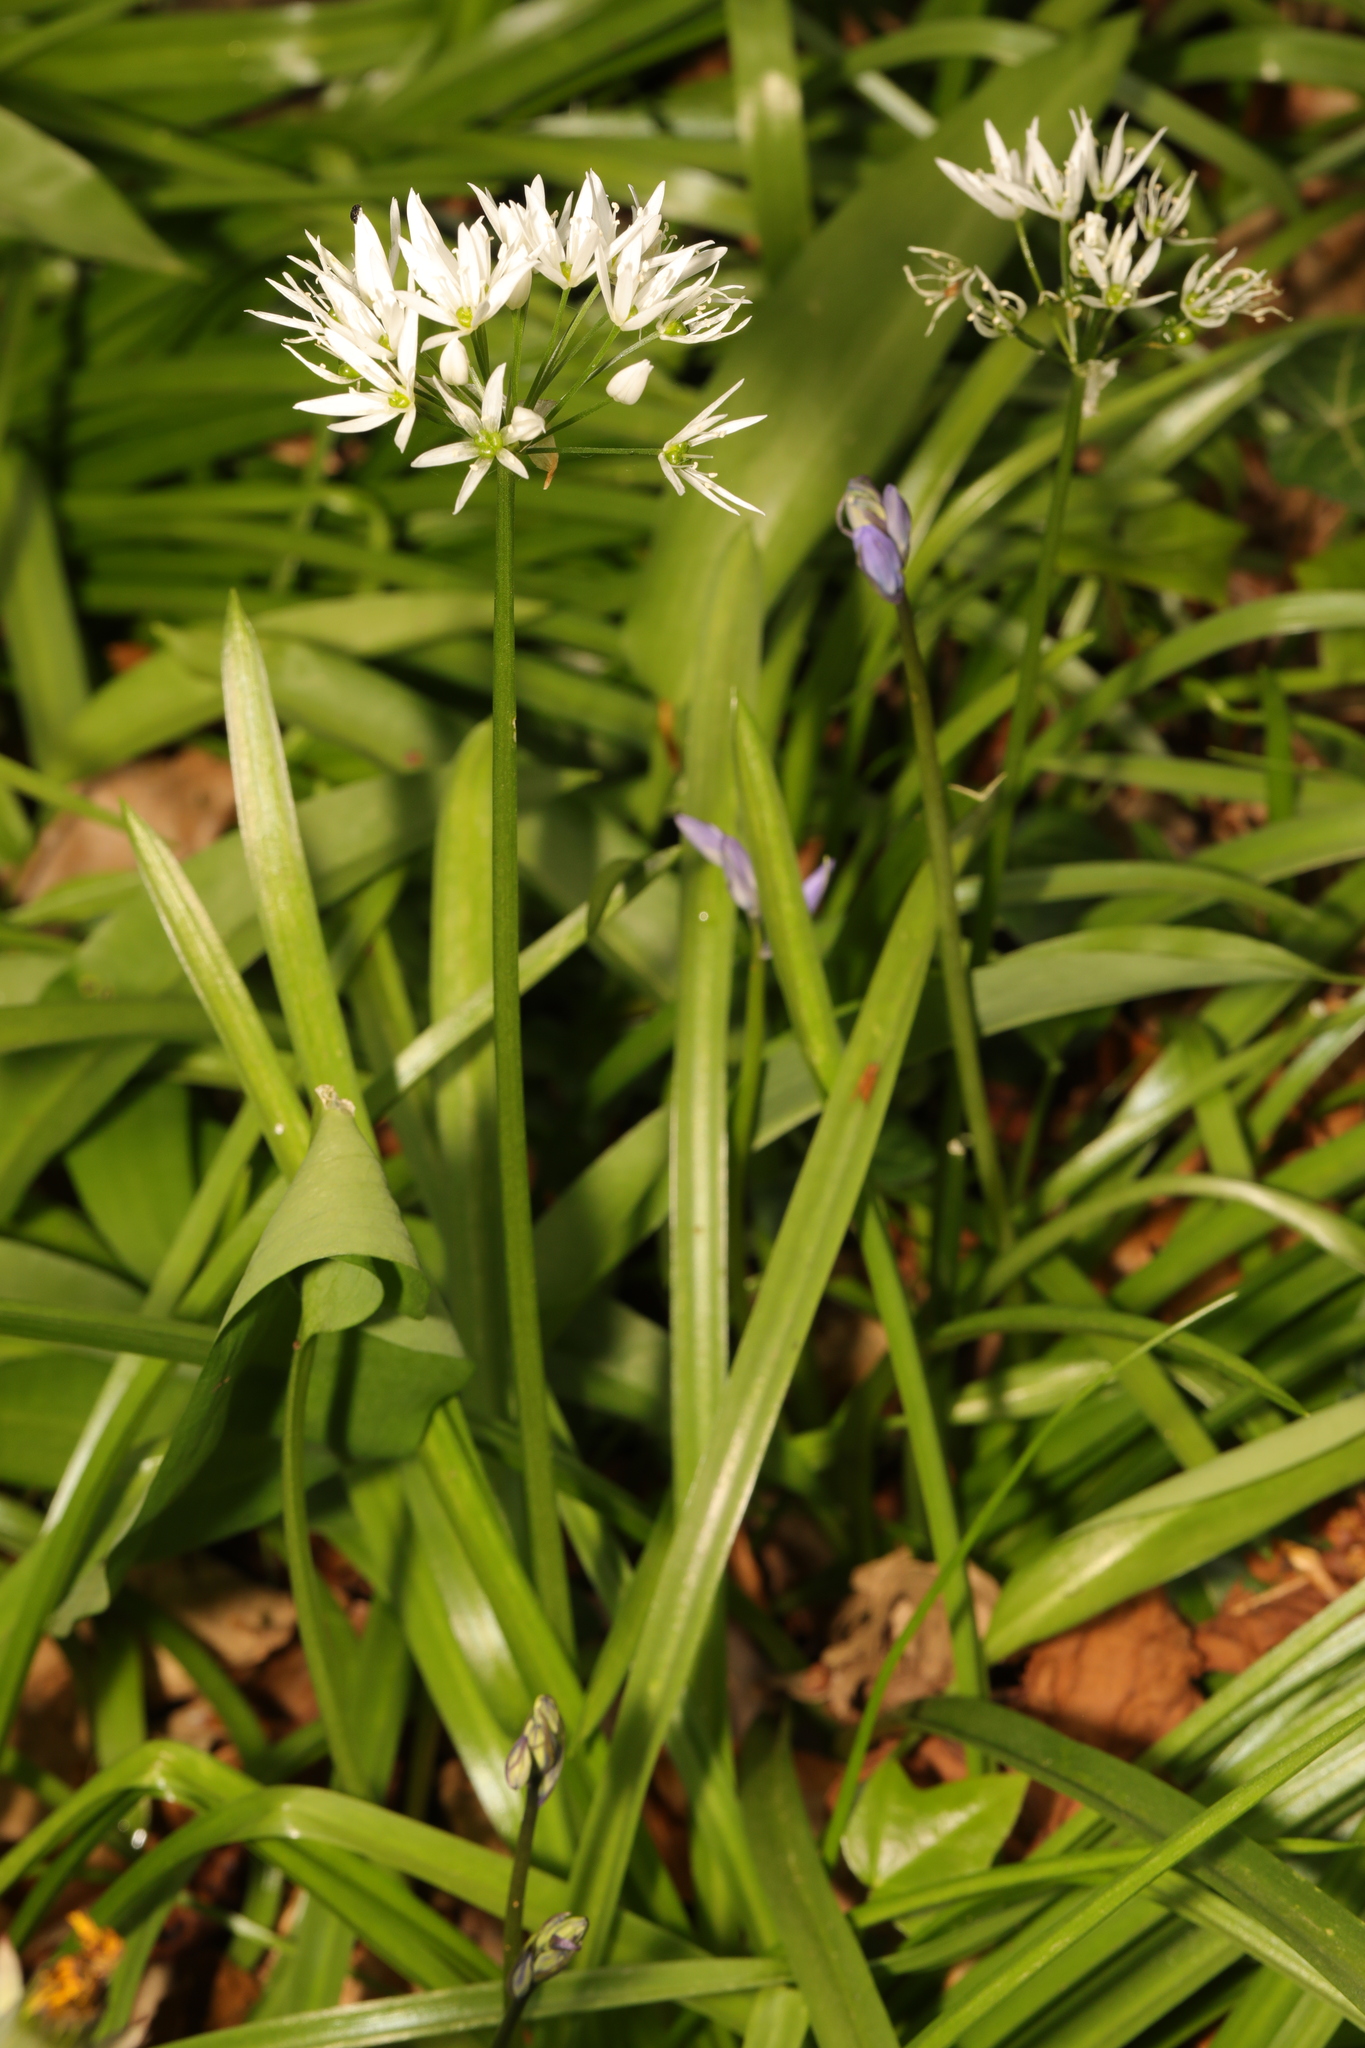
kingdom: Plantae
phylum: Tracheophyta
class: Liliopsida
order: Asparagales
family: Amaryllidaceae
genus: Allium
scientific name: Allium ursinum
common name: Ramsons
